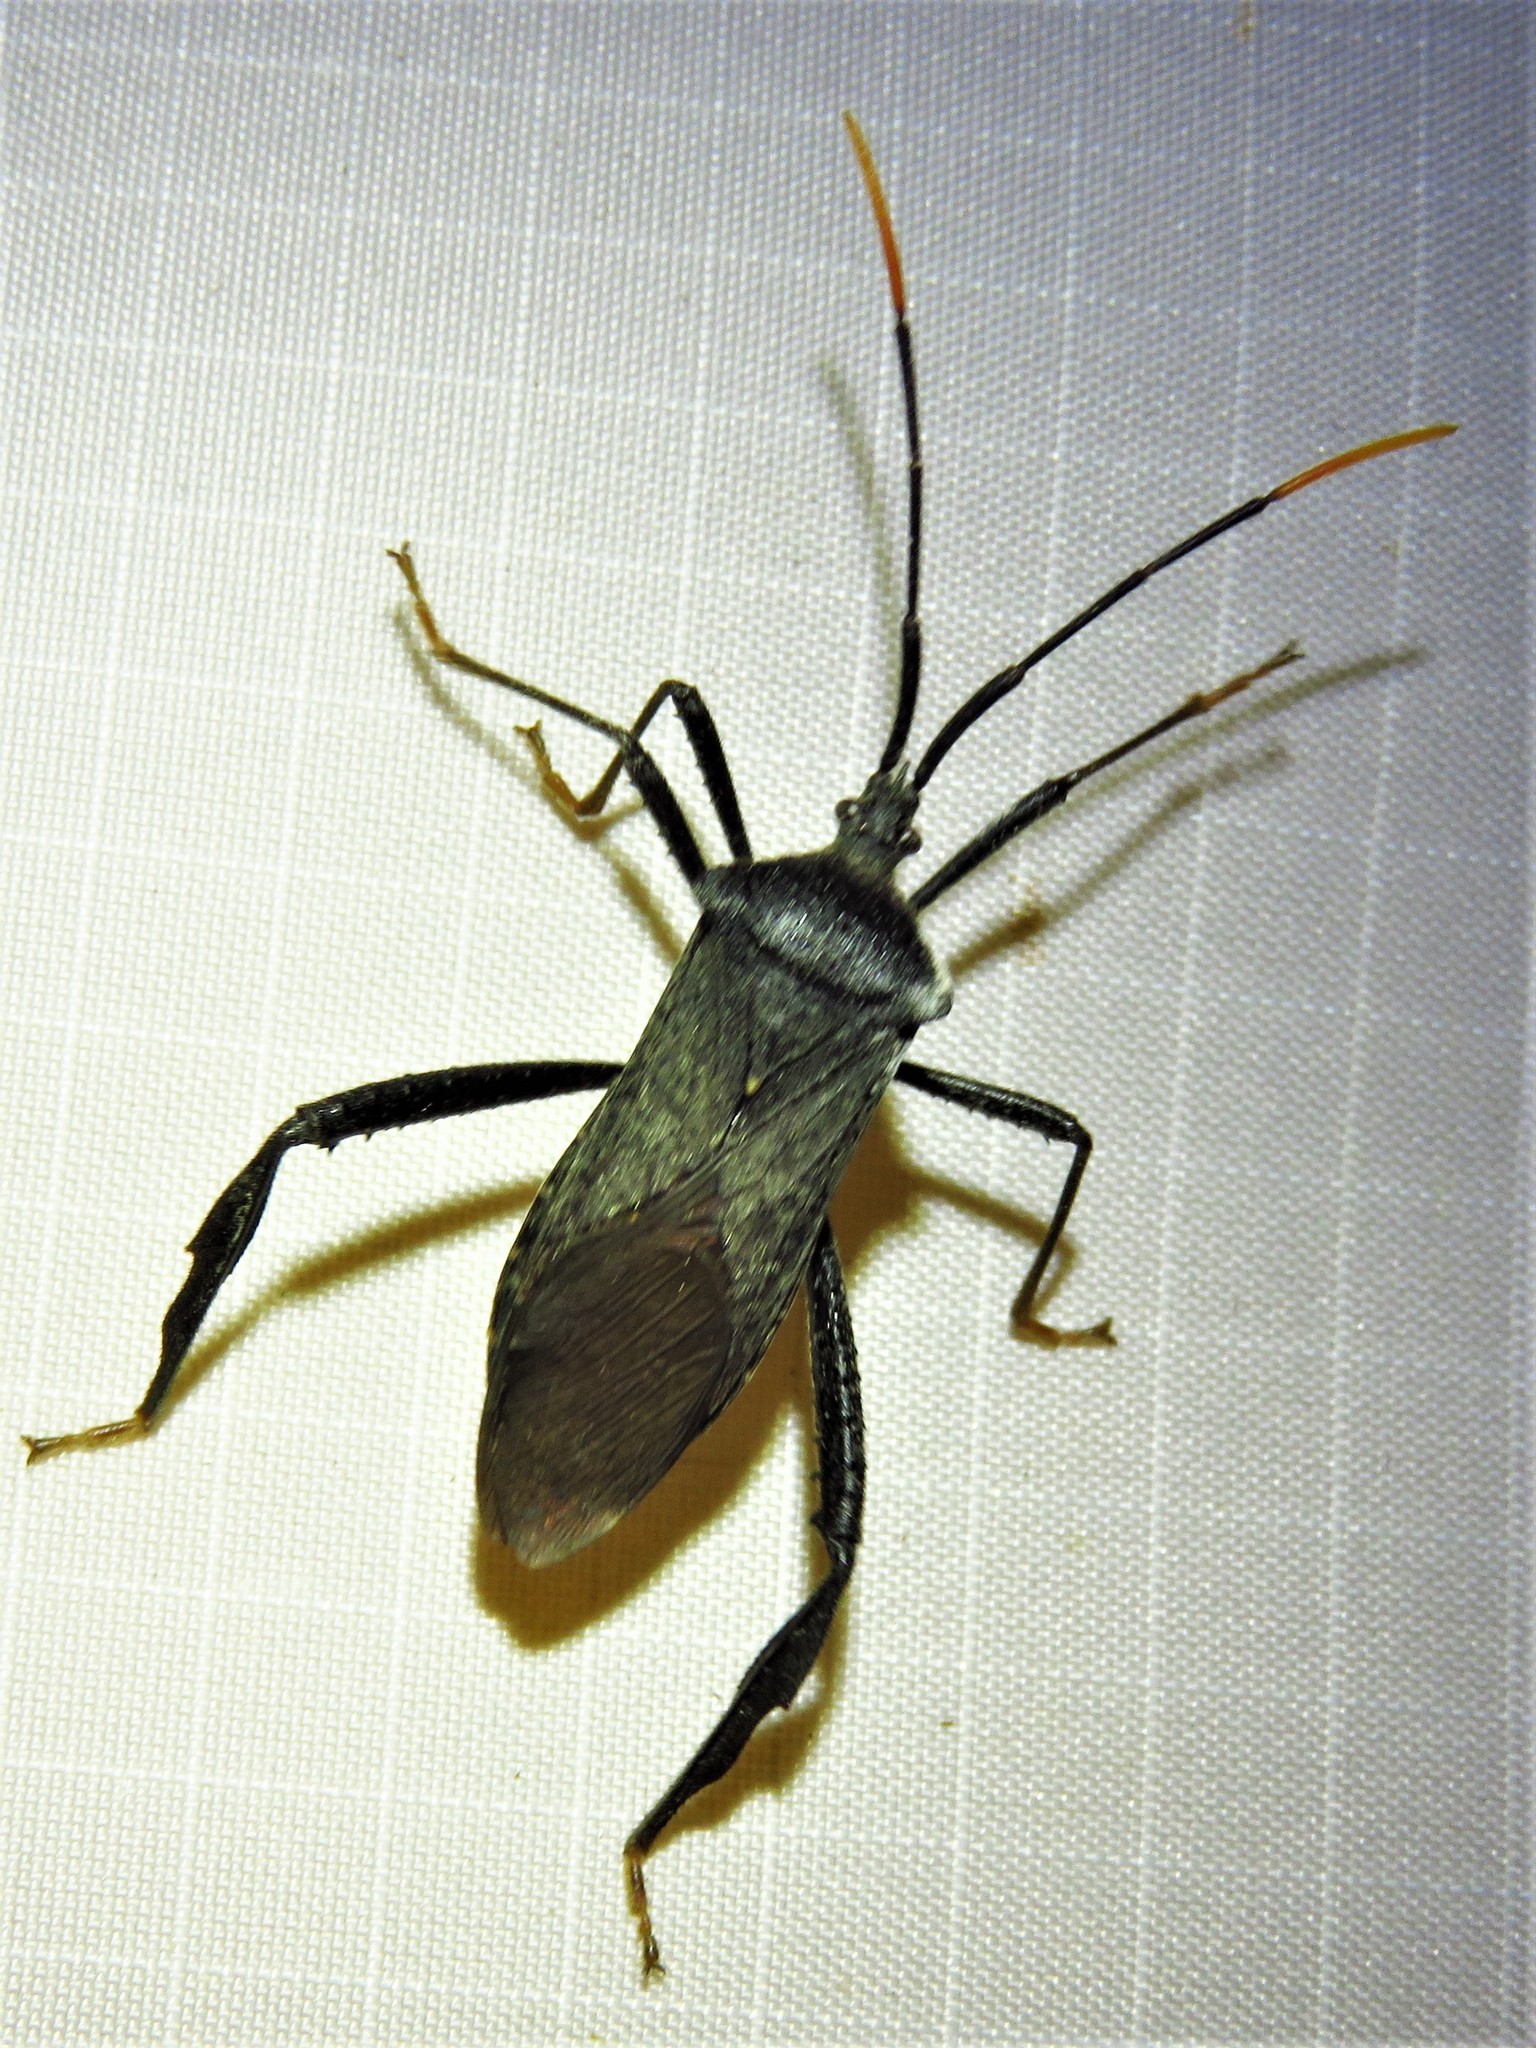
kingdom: Animalia
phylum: Arthropoda
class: Insecta
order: Hemiptera
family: Coreidae
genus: Acanthocephala
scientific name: Acanthocephala terminalis
